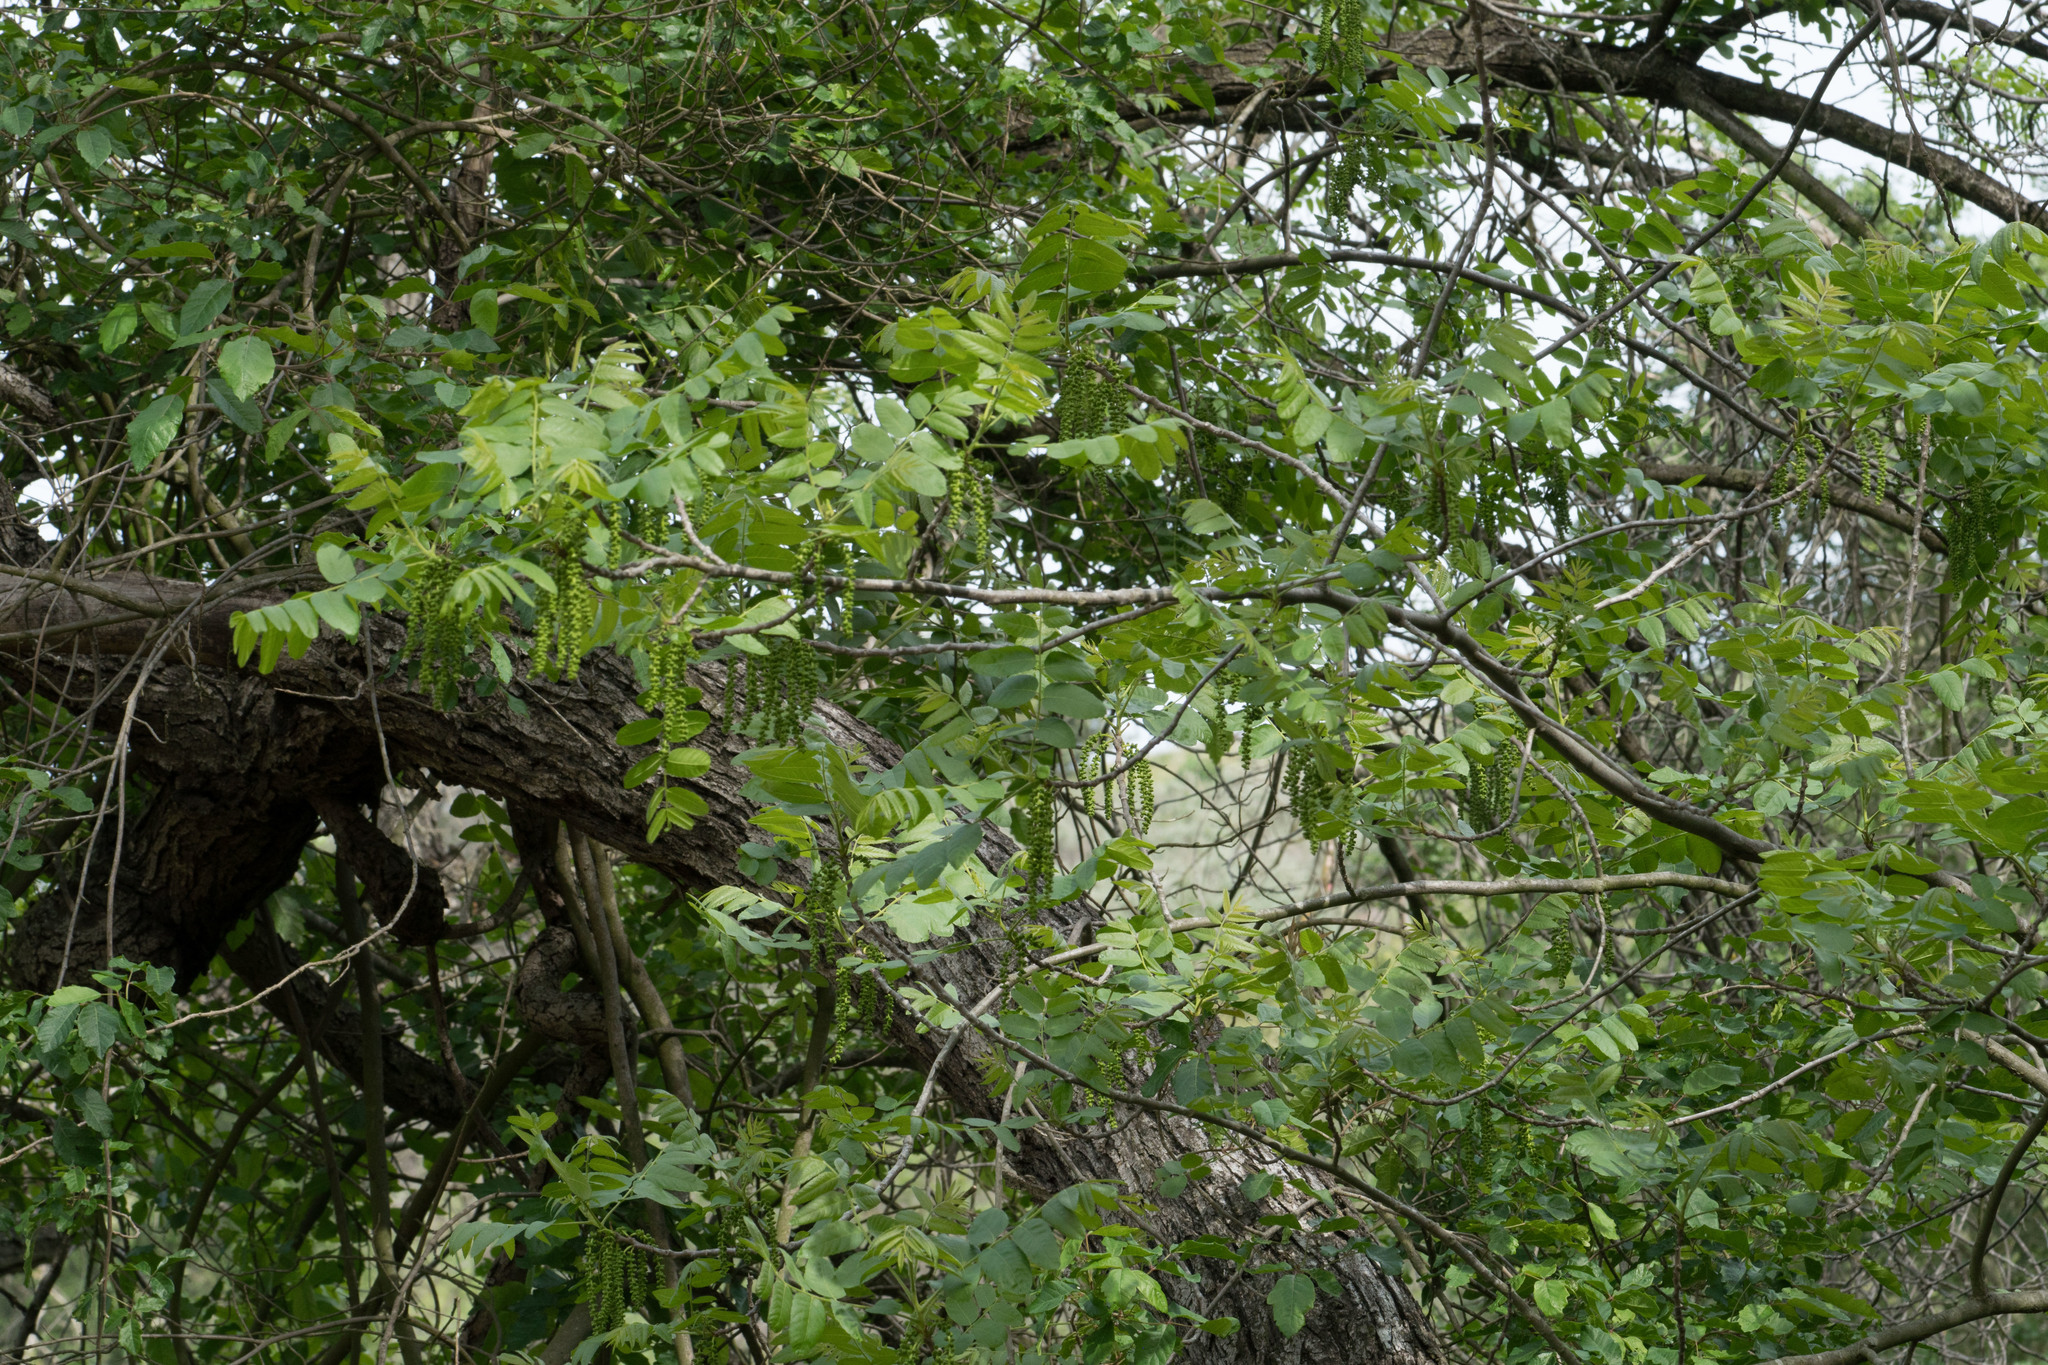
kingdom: Plantae
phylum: Tracheophyta
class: Magnoliopsida
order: Fagales
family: Juglandaceae
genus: Juglans
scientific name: Juglans californica
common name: Southern california black walnut
